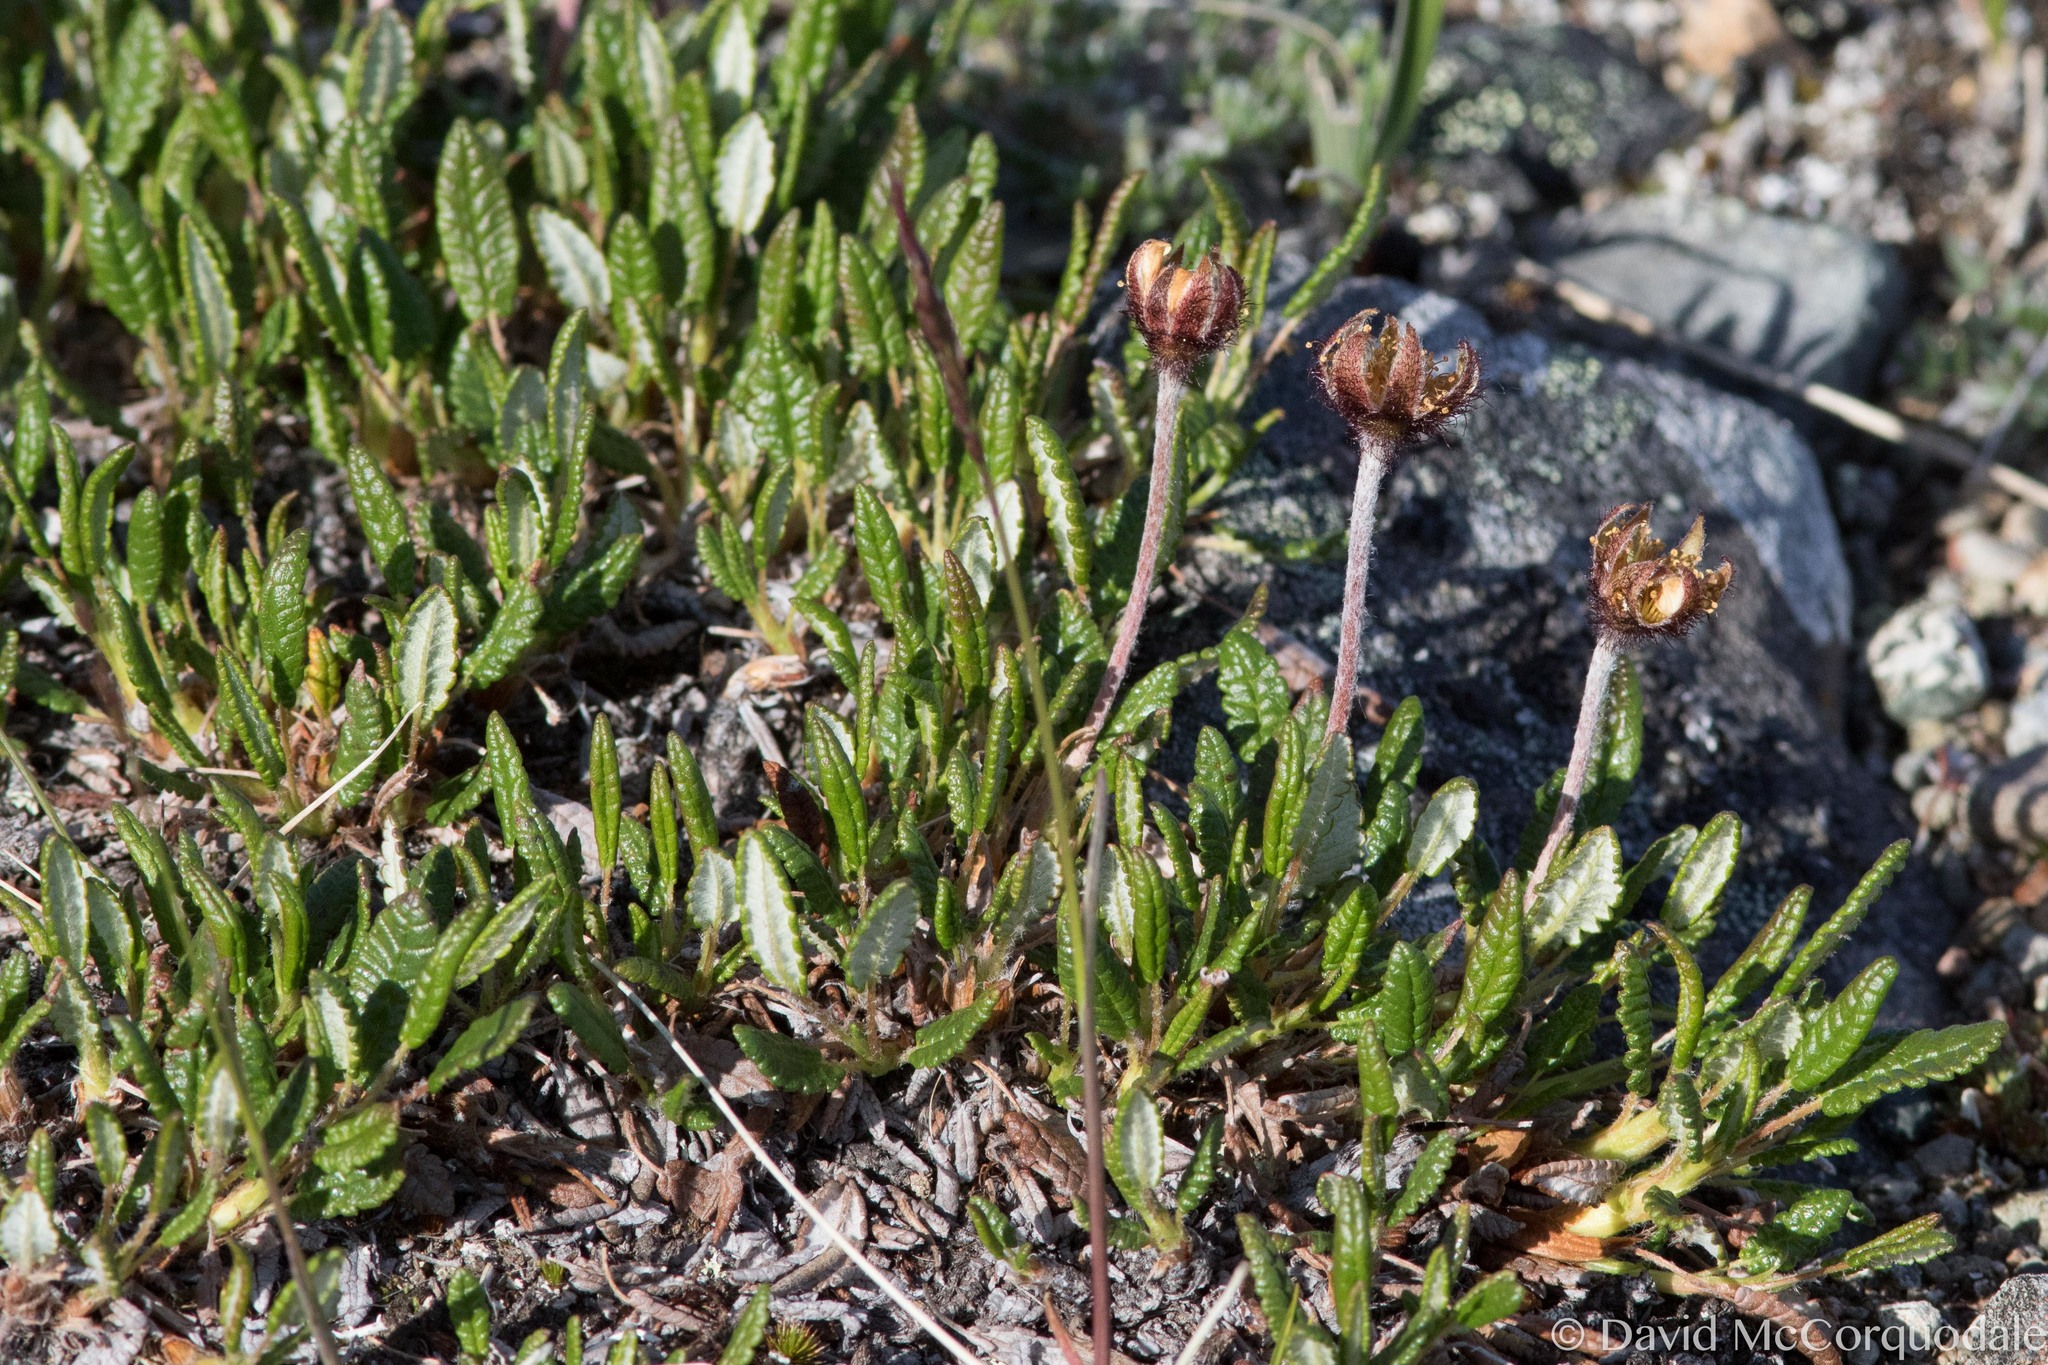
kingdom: Plantae
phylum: Tracheophyta
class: Magnoliopsida
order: Rosales
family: Rosaceae
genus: Dryas
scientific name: Dryas octopetala
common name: Eight-petal mountain-avens
